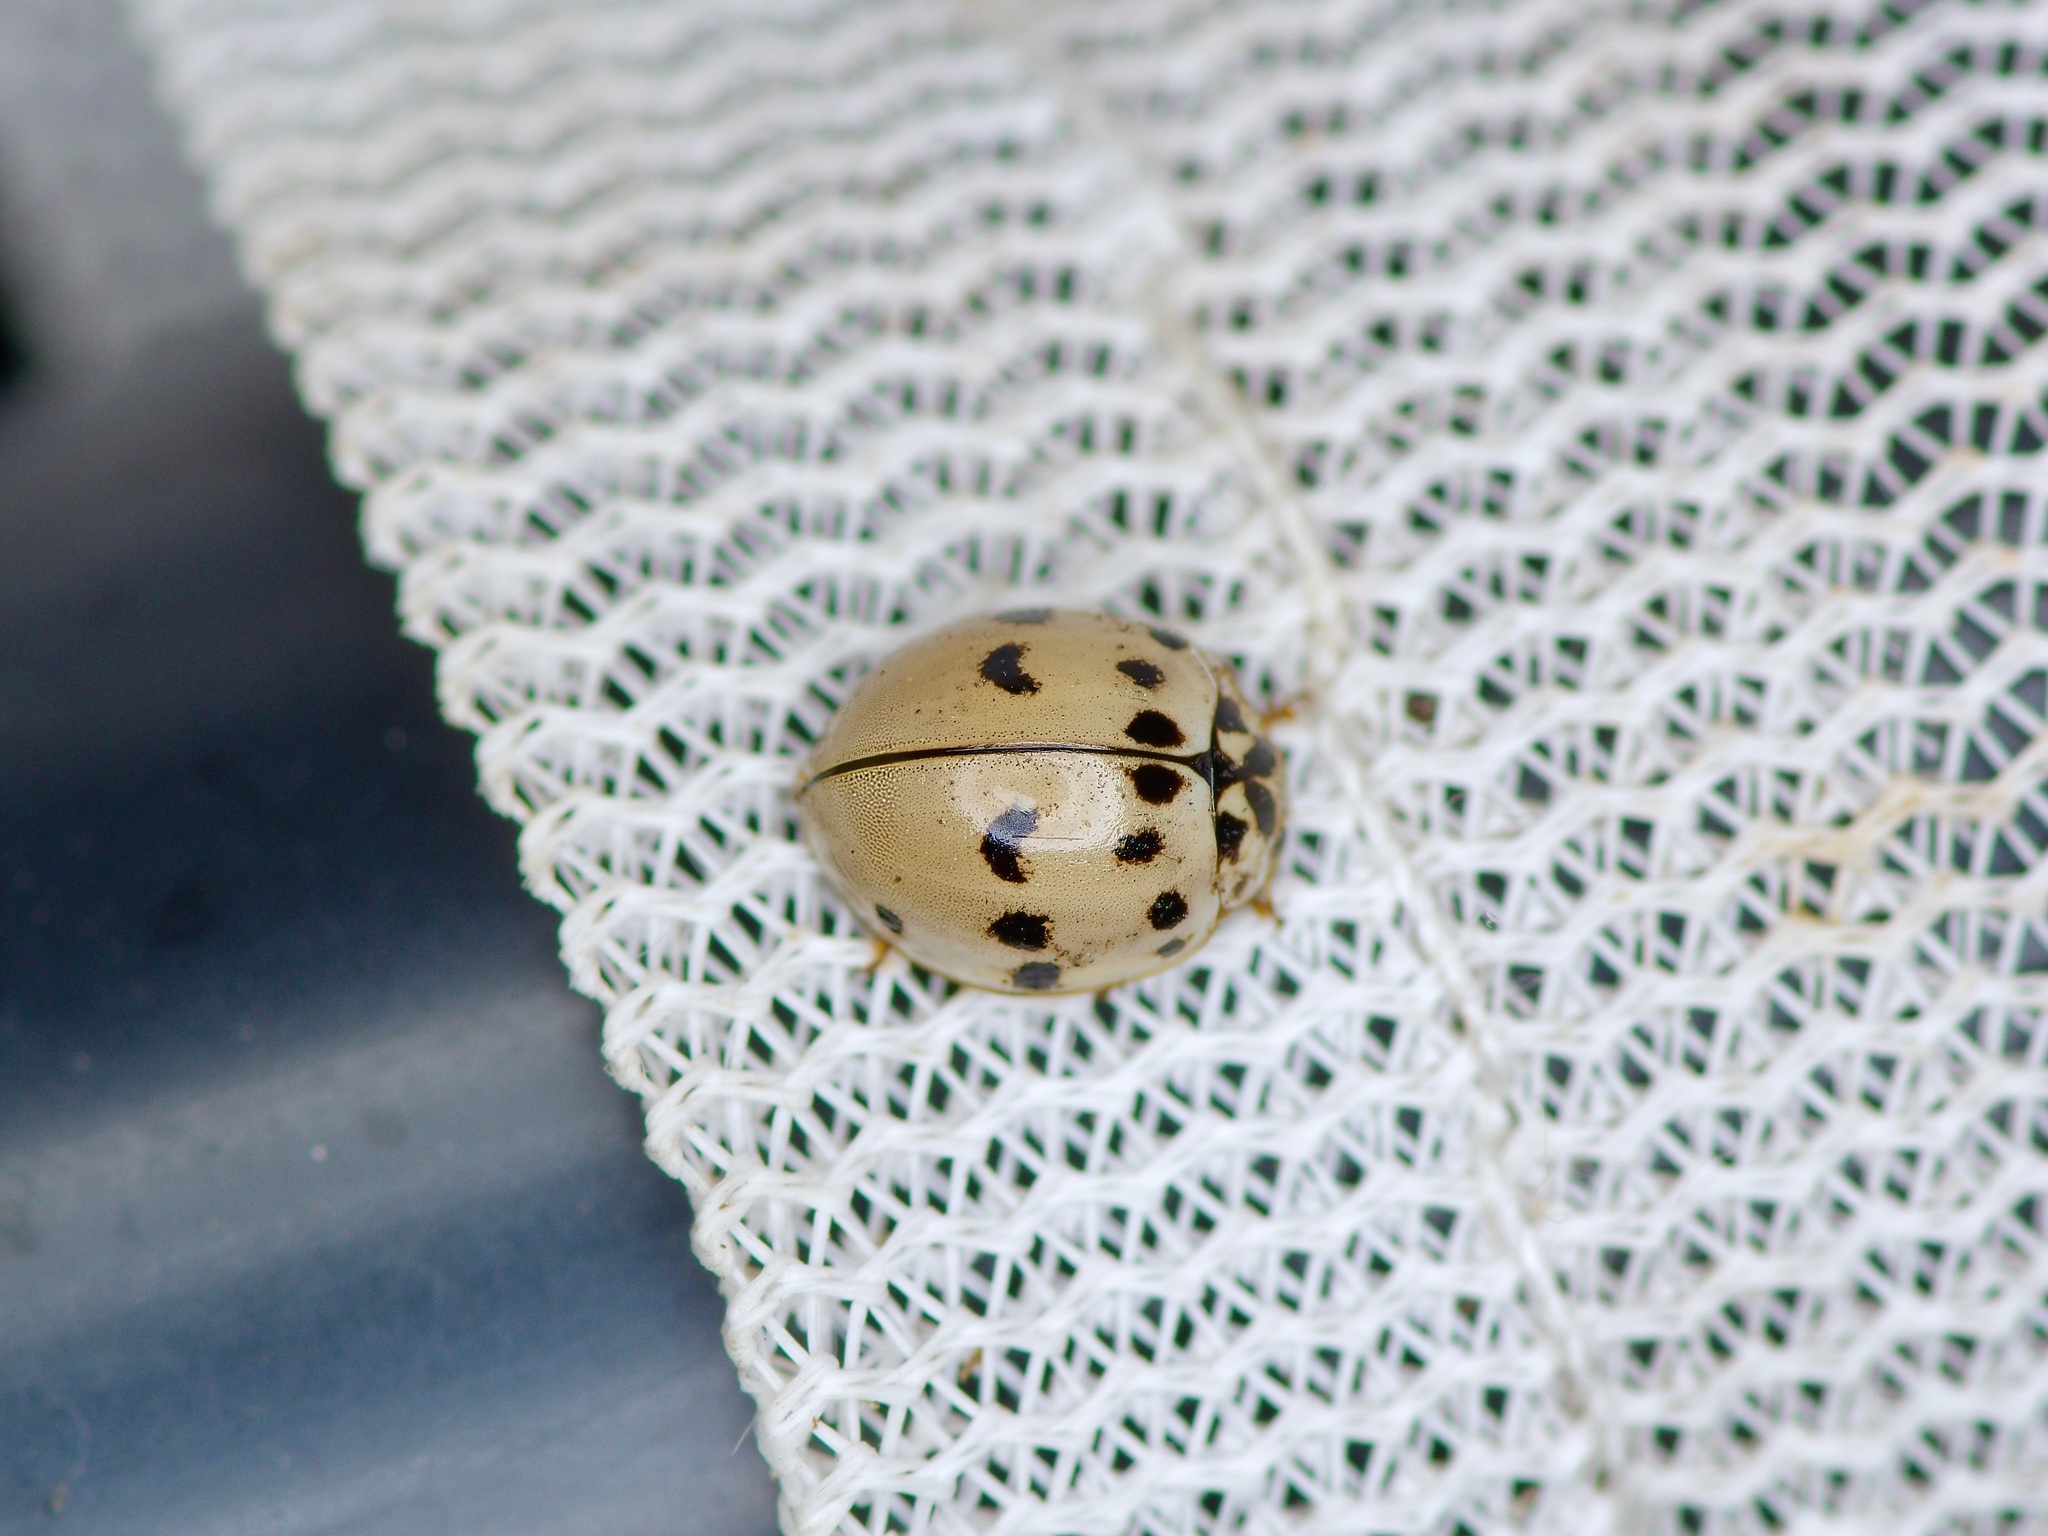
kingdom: Animalia
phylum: Arthropoda
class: Insecta
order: Coleoptera
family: Coccinellidae
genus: Olla
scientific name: Olla v-nigrum
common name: Ashy gray lady beetle
